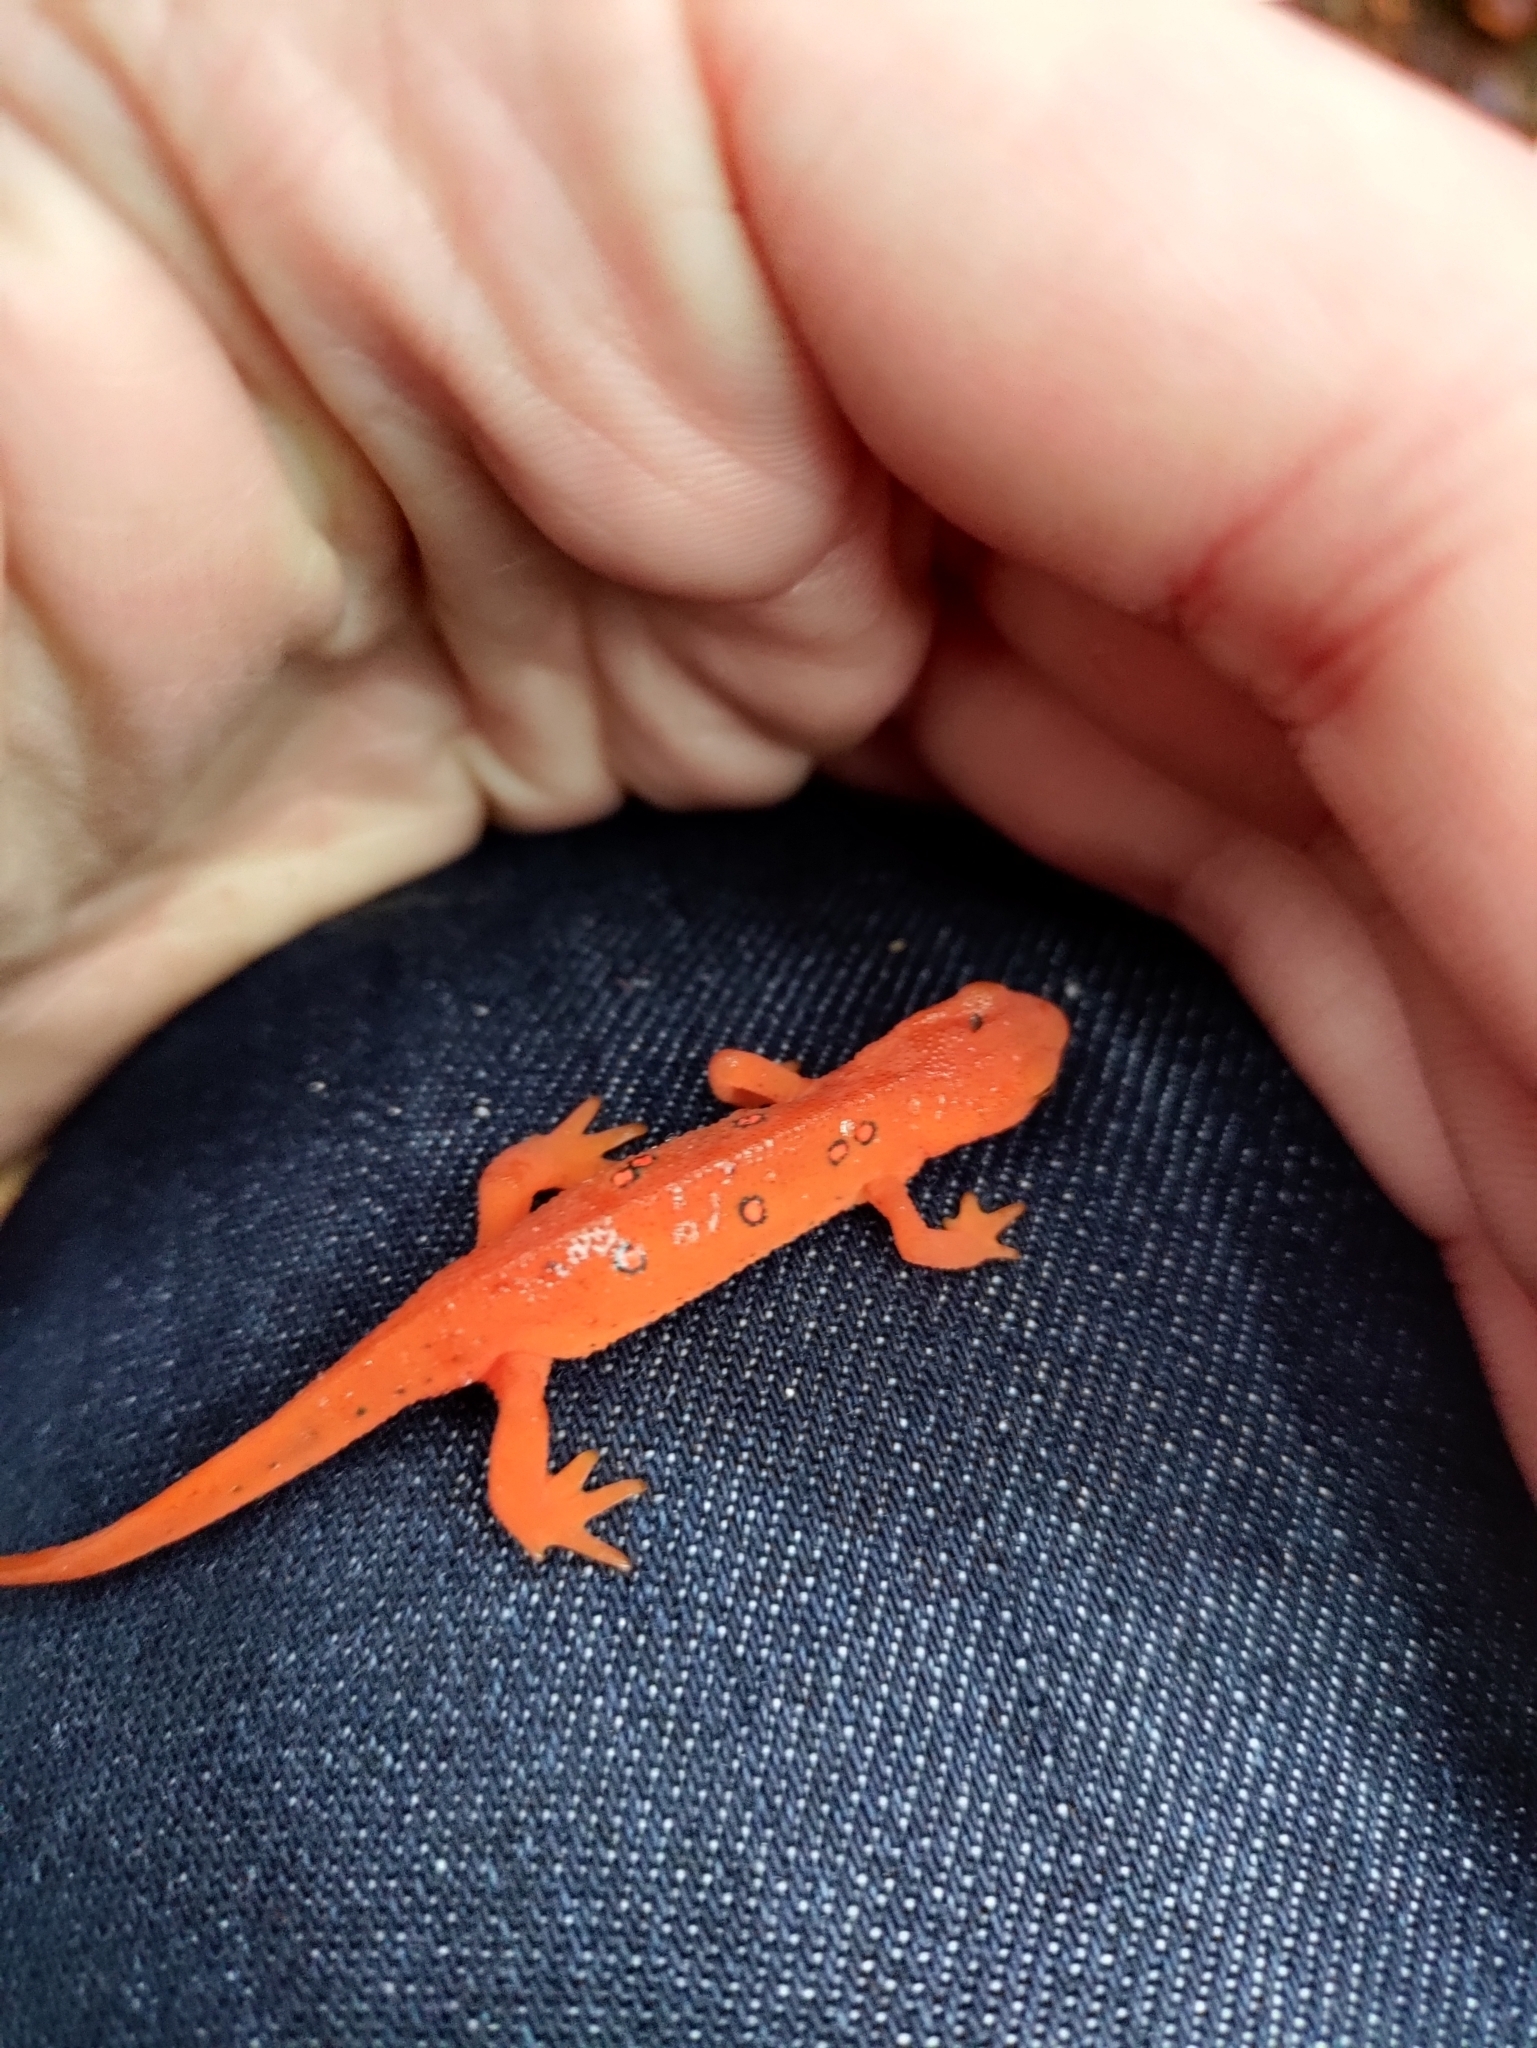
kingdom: Animalia
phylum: Chordata
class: Amphibia
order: Caudata
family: Salamandridae
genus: Notophthalmus
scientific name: Notophthalmus viridescens
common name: Eastern newt
